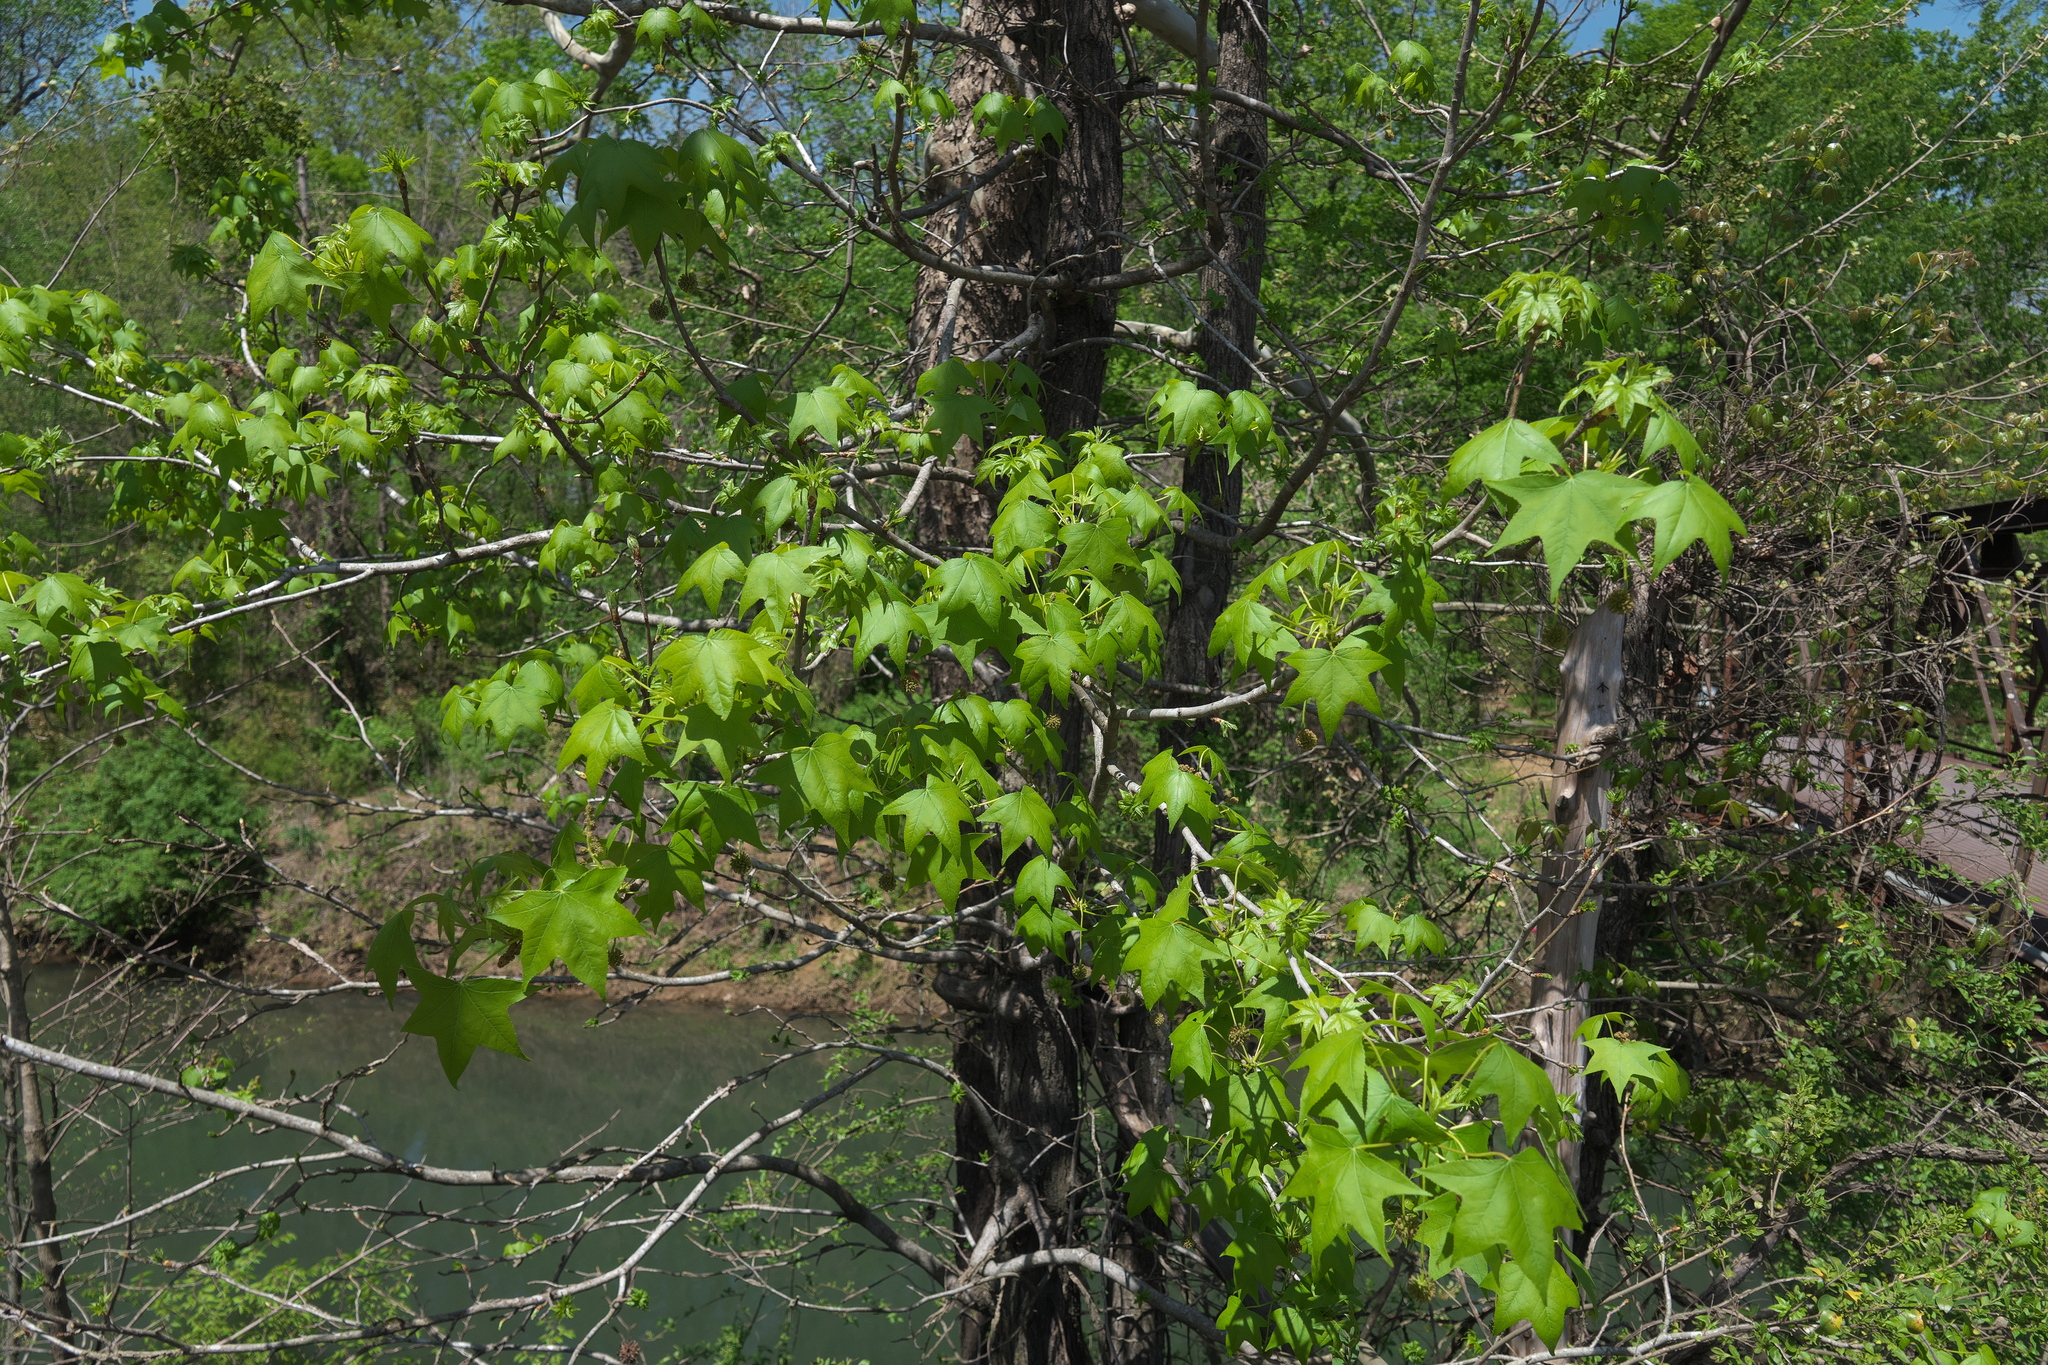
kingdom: Plantae
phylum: Tracheophyta
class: Magnoliopsida
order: Saxifragales
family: Altingiaceae
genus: Liquidambar
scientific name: Liquidambar styraciflua
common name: Sweet gum
